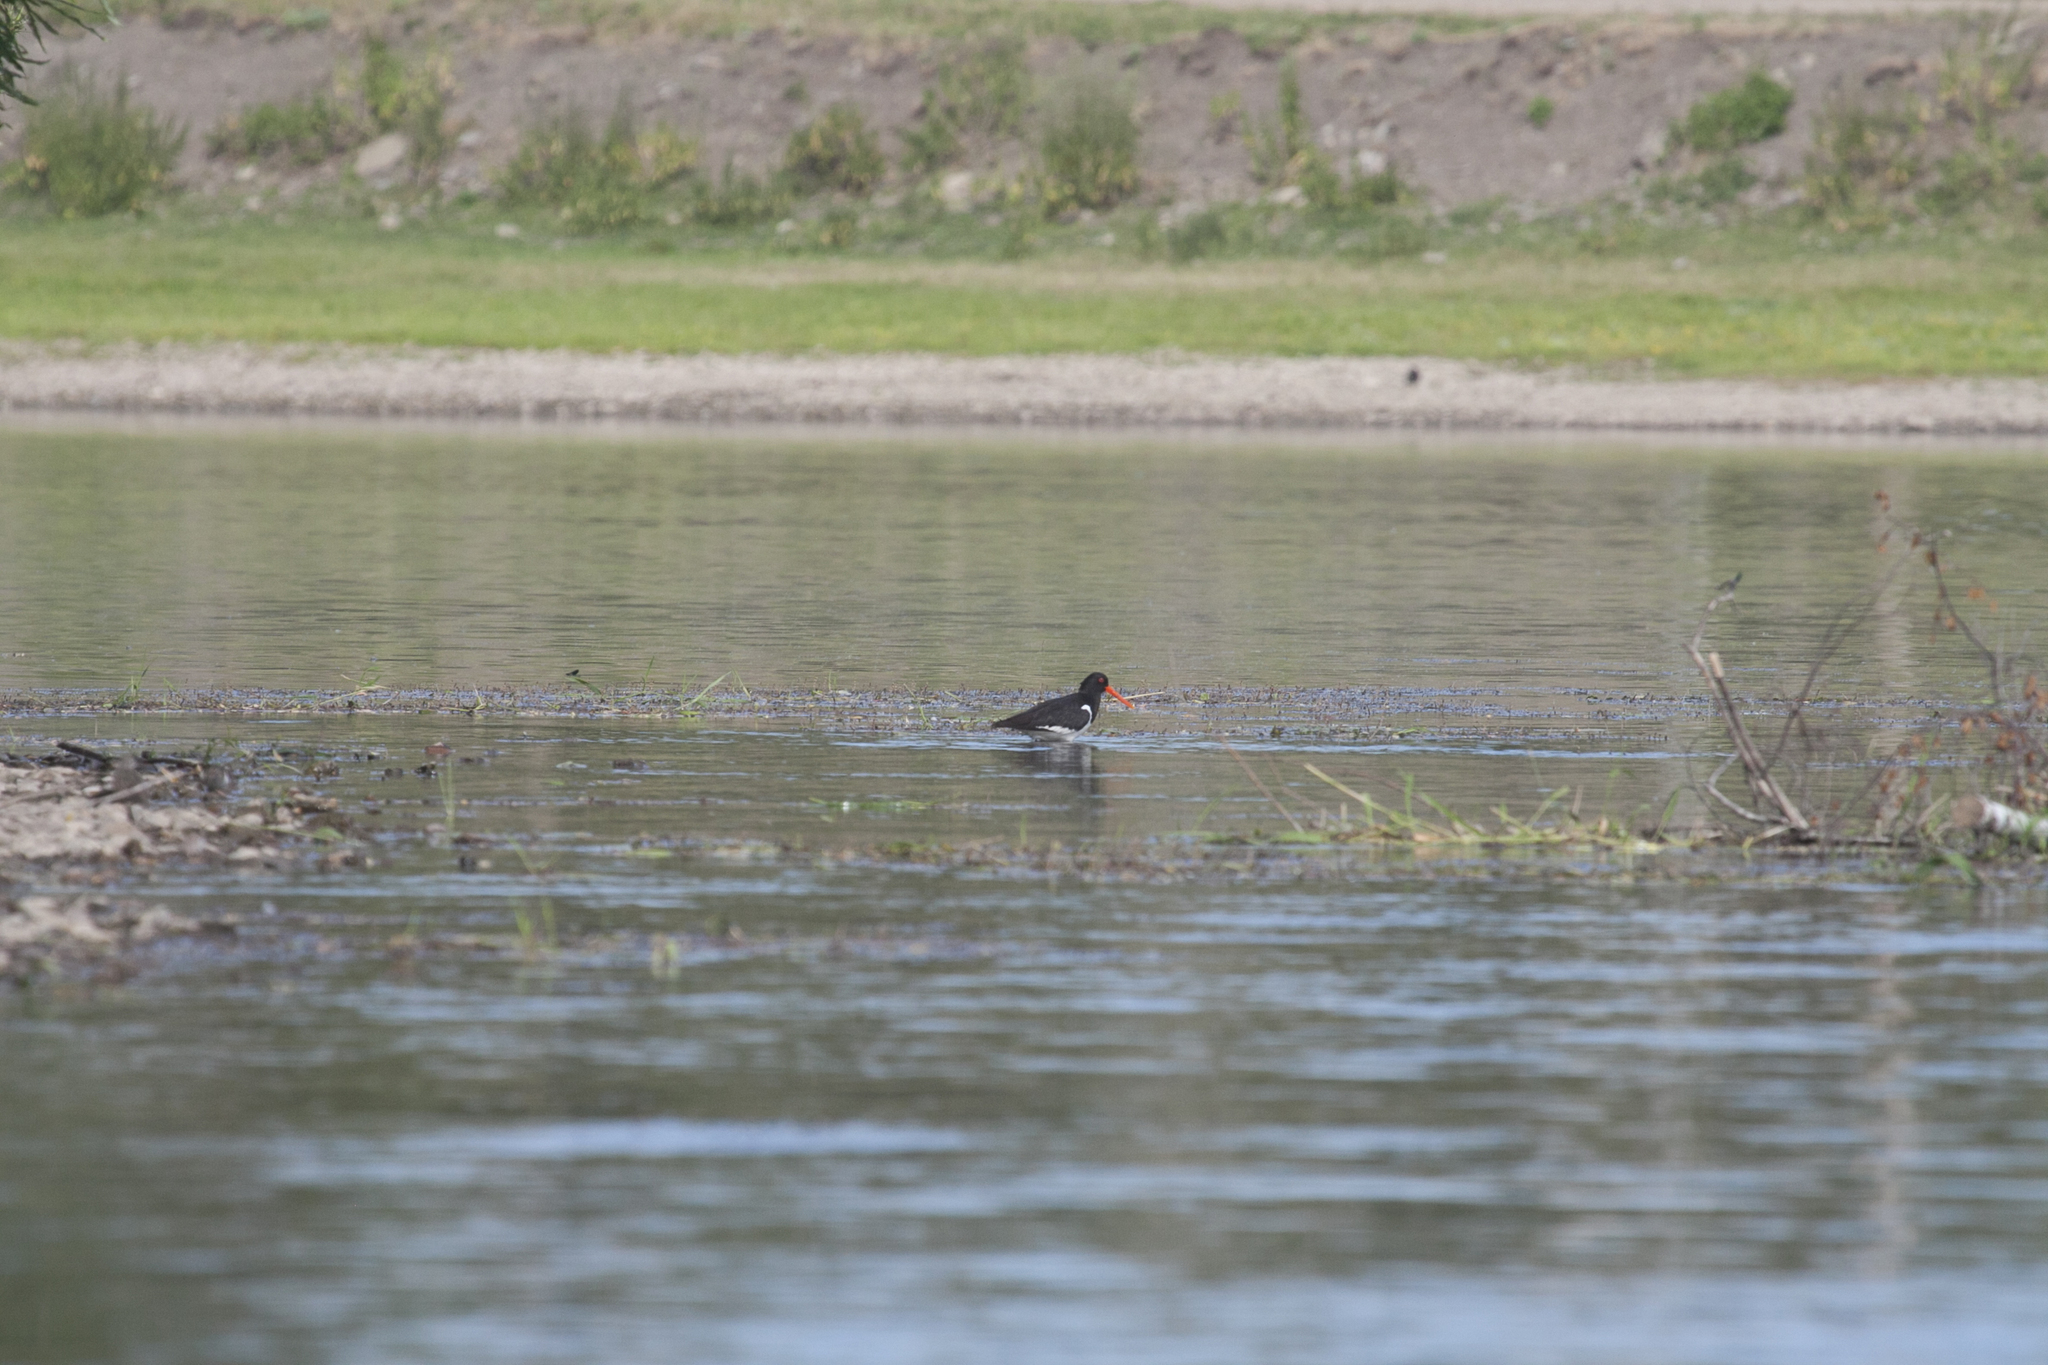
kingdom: Animalia
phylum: Chordata
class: Aves
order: Charadriiformes
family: Haematopodidae
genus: Haematopus
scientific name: Haematopus ostralegus
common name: Eurasian oystercatcher
